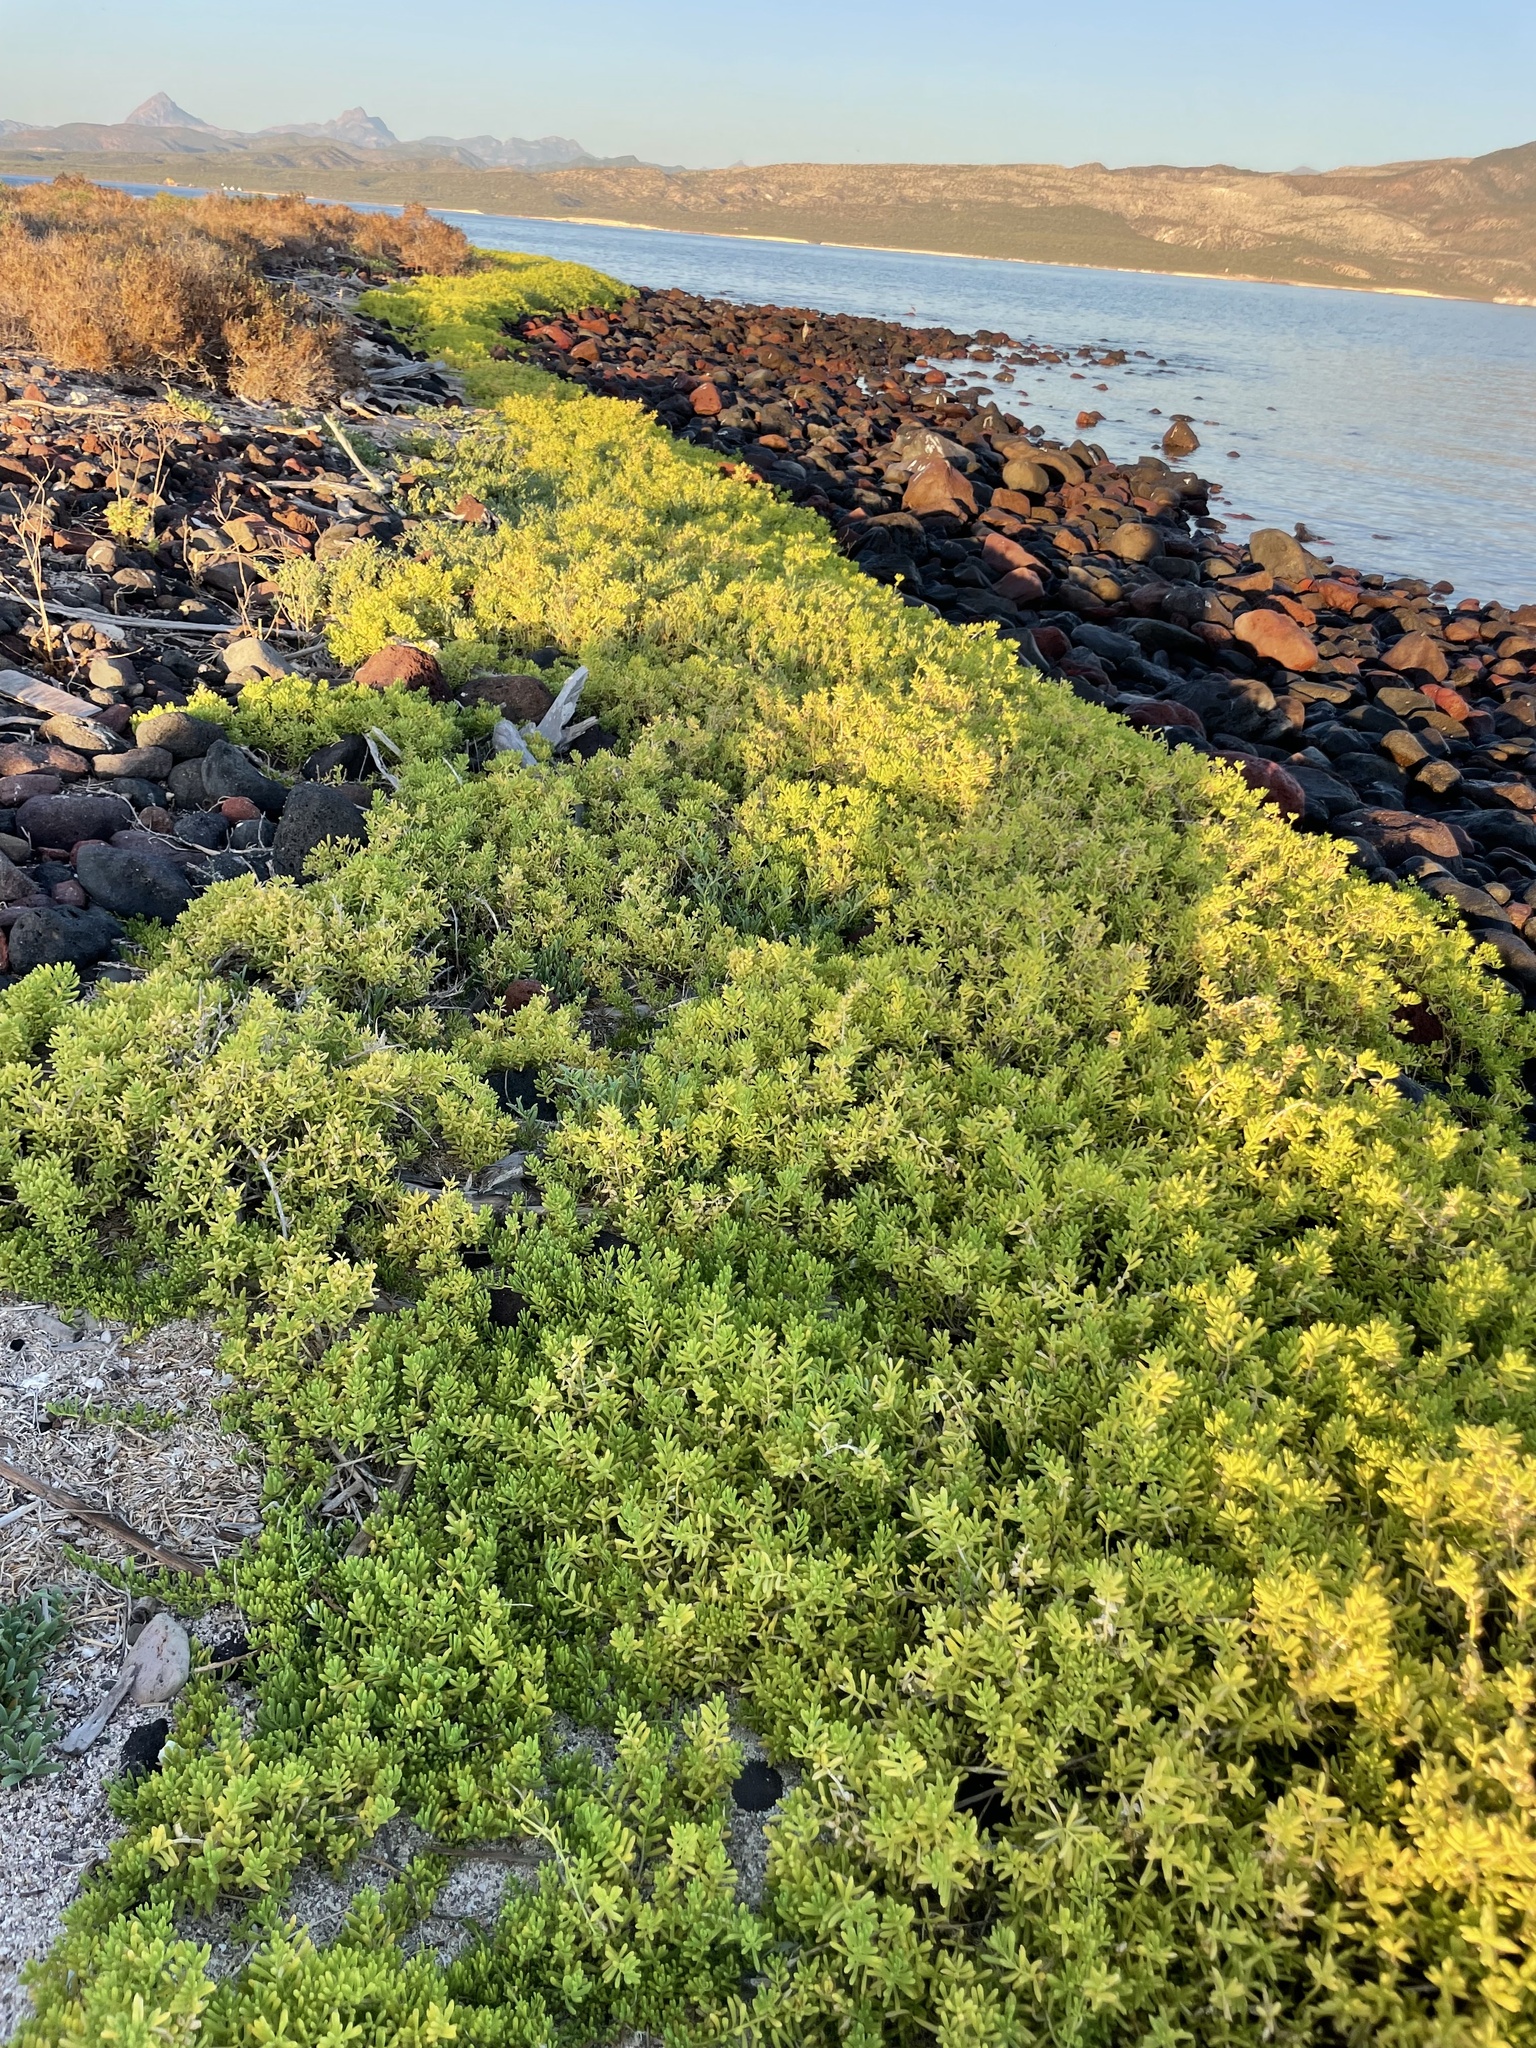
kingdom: Plantae
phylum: Tracheophyta
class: Magnoliopsida
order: Brassicales
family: Bataceae
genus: Batis
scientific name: Batis maritima
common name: Turtleweed
